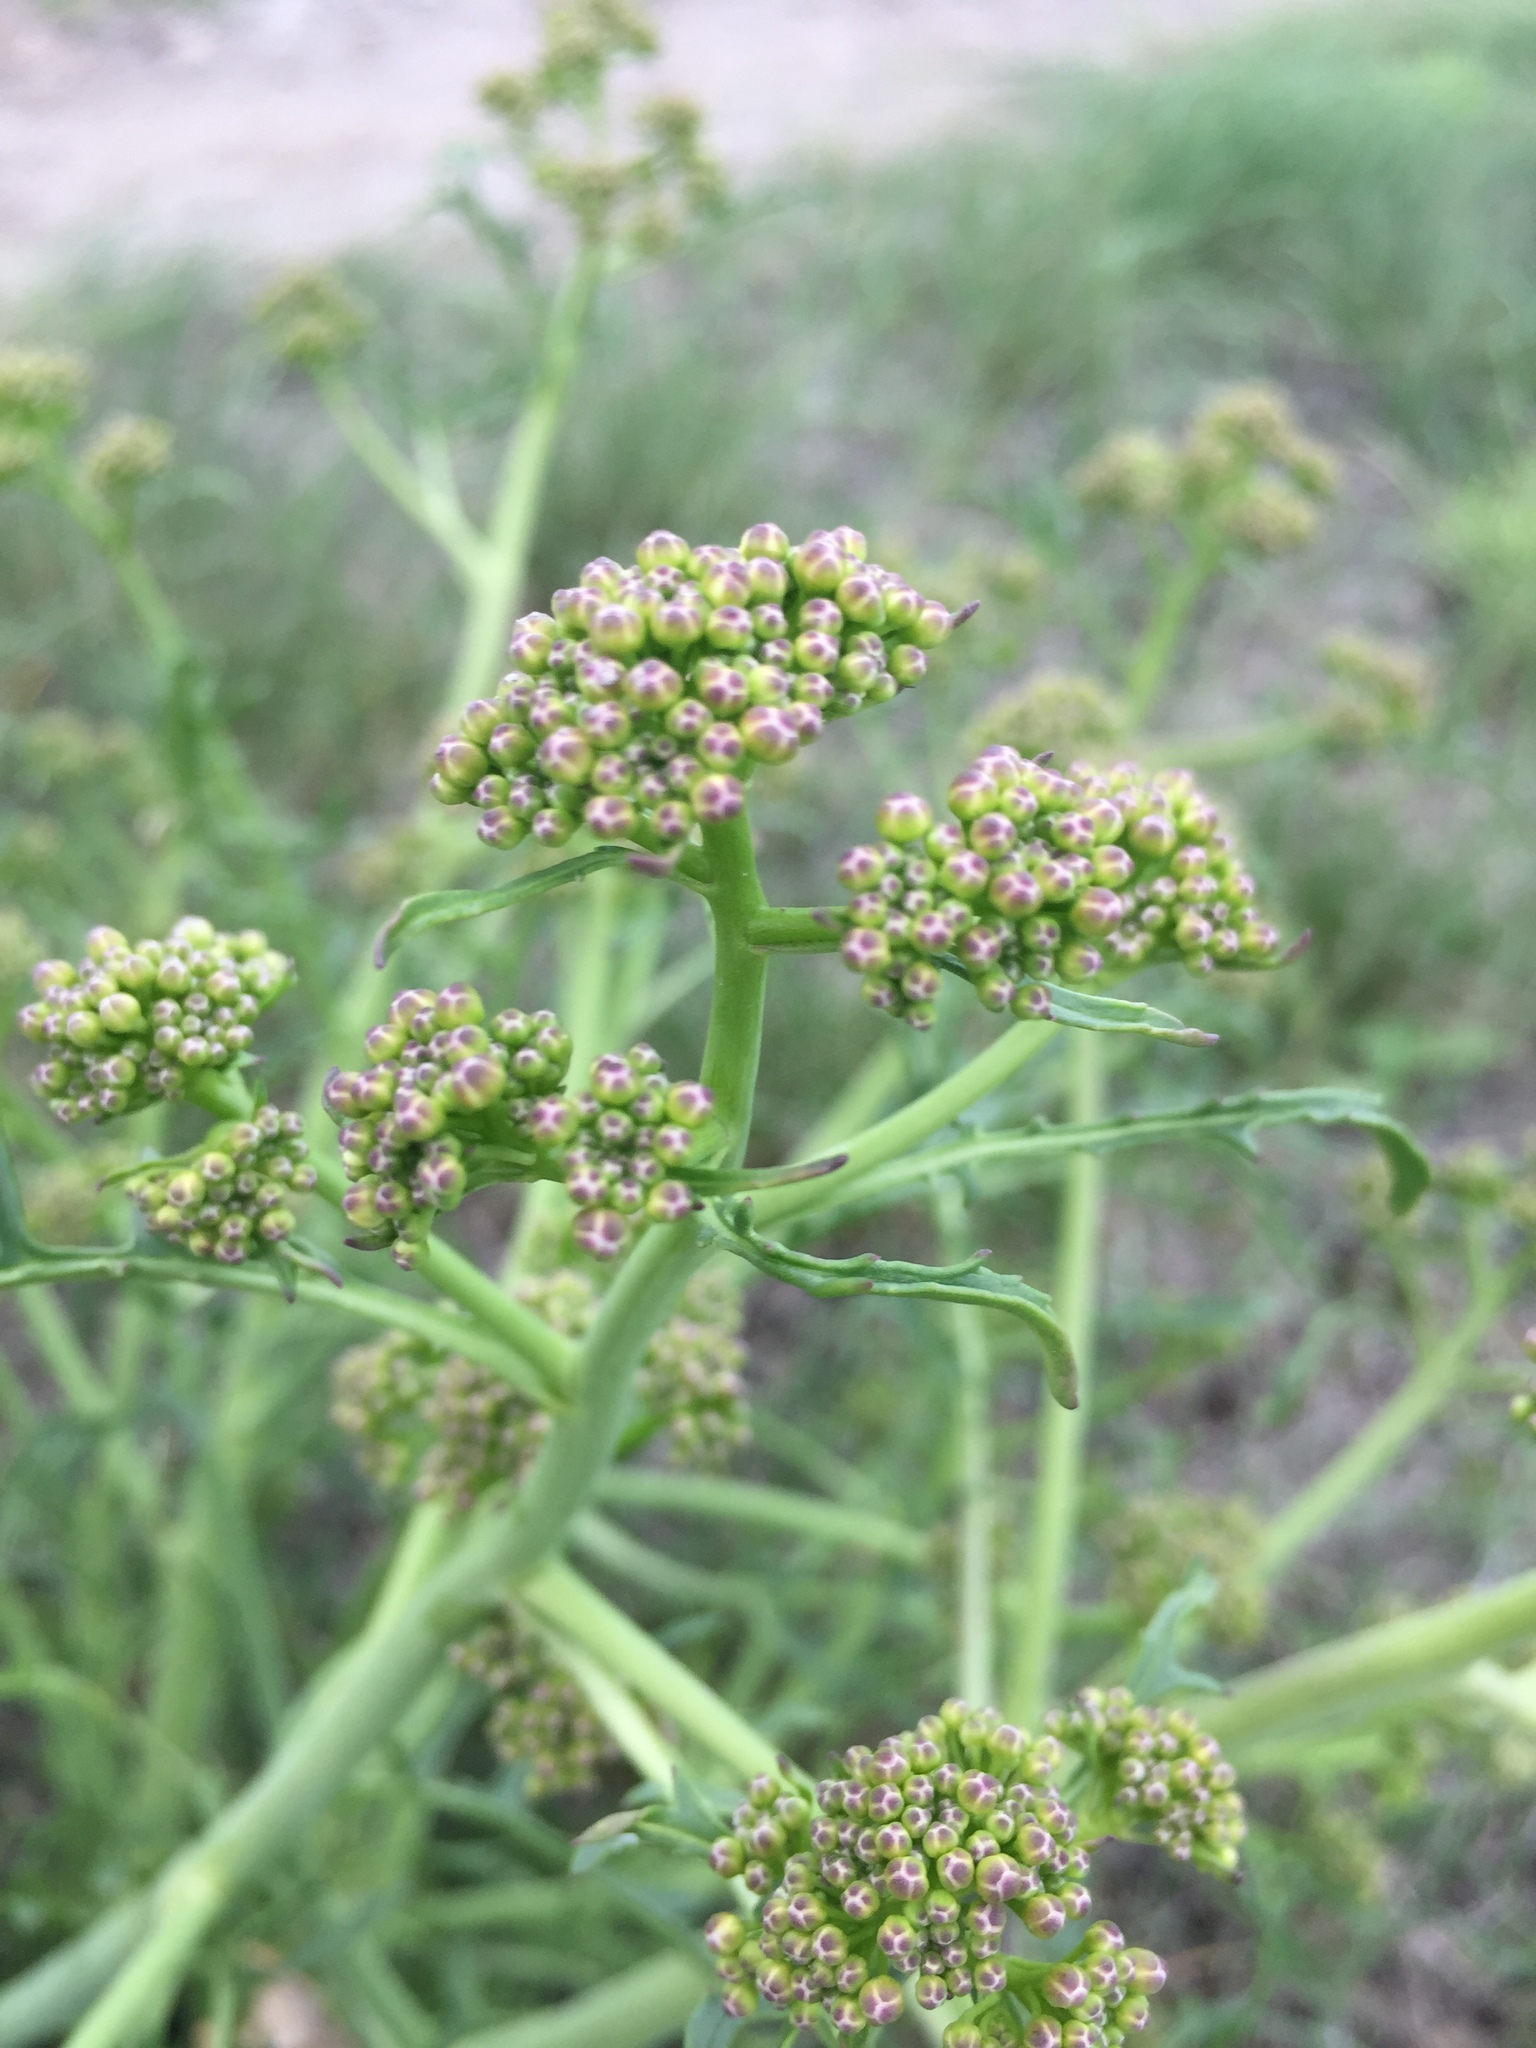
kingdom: Plantae
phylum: Tracheophyta
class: Magnoliopsida
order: Brassicales
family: Brassicaceae
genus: Crambe
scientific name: Crambe tataria
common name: Tartarian breadplant
